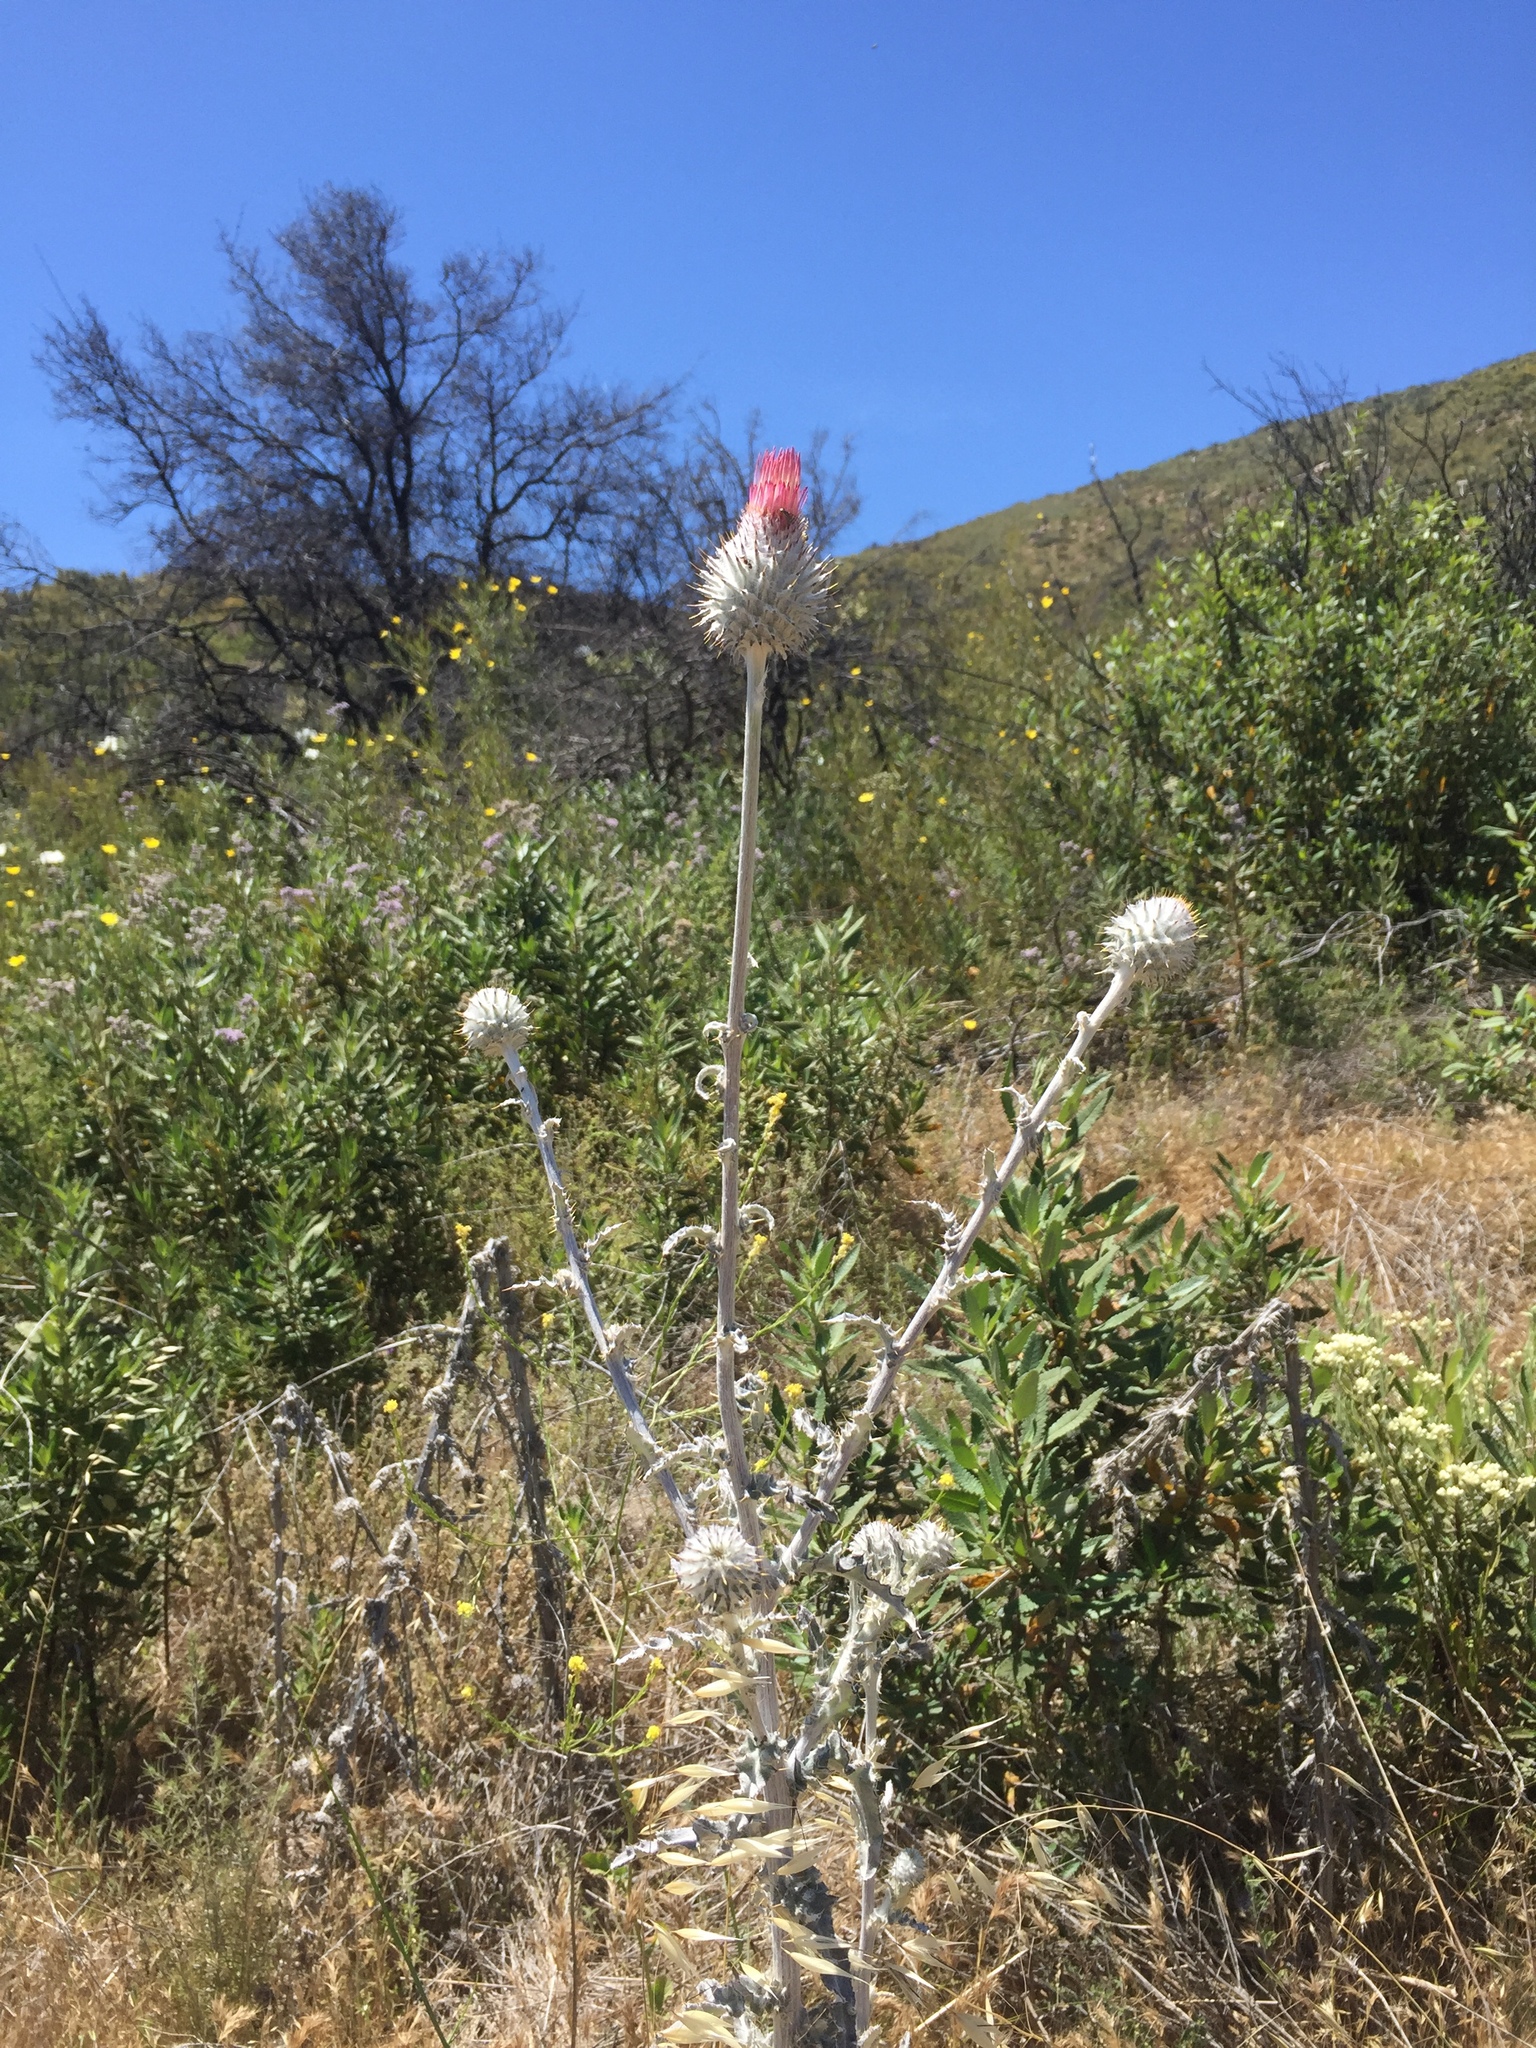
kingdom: Plantae
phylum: Tracheophyta
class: Magnoliopsida
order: Asterales
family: Asteraceae
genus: Cirsium
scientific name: Cirsium occidentale
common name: Western thistle
